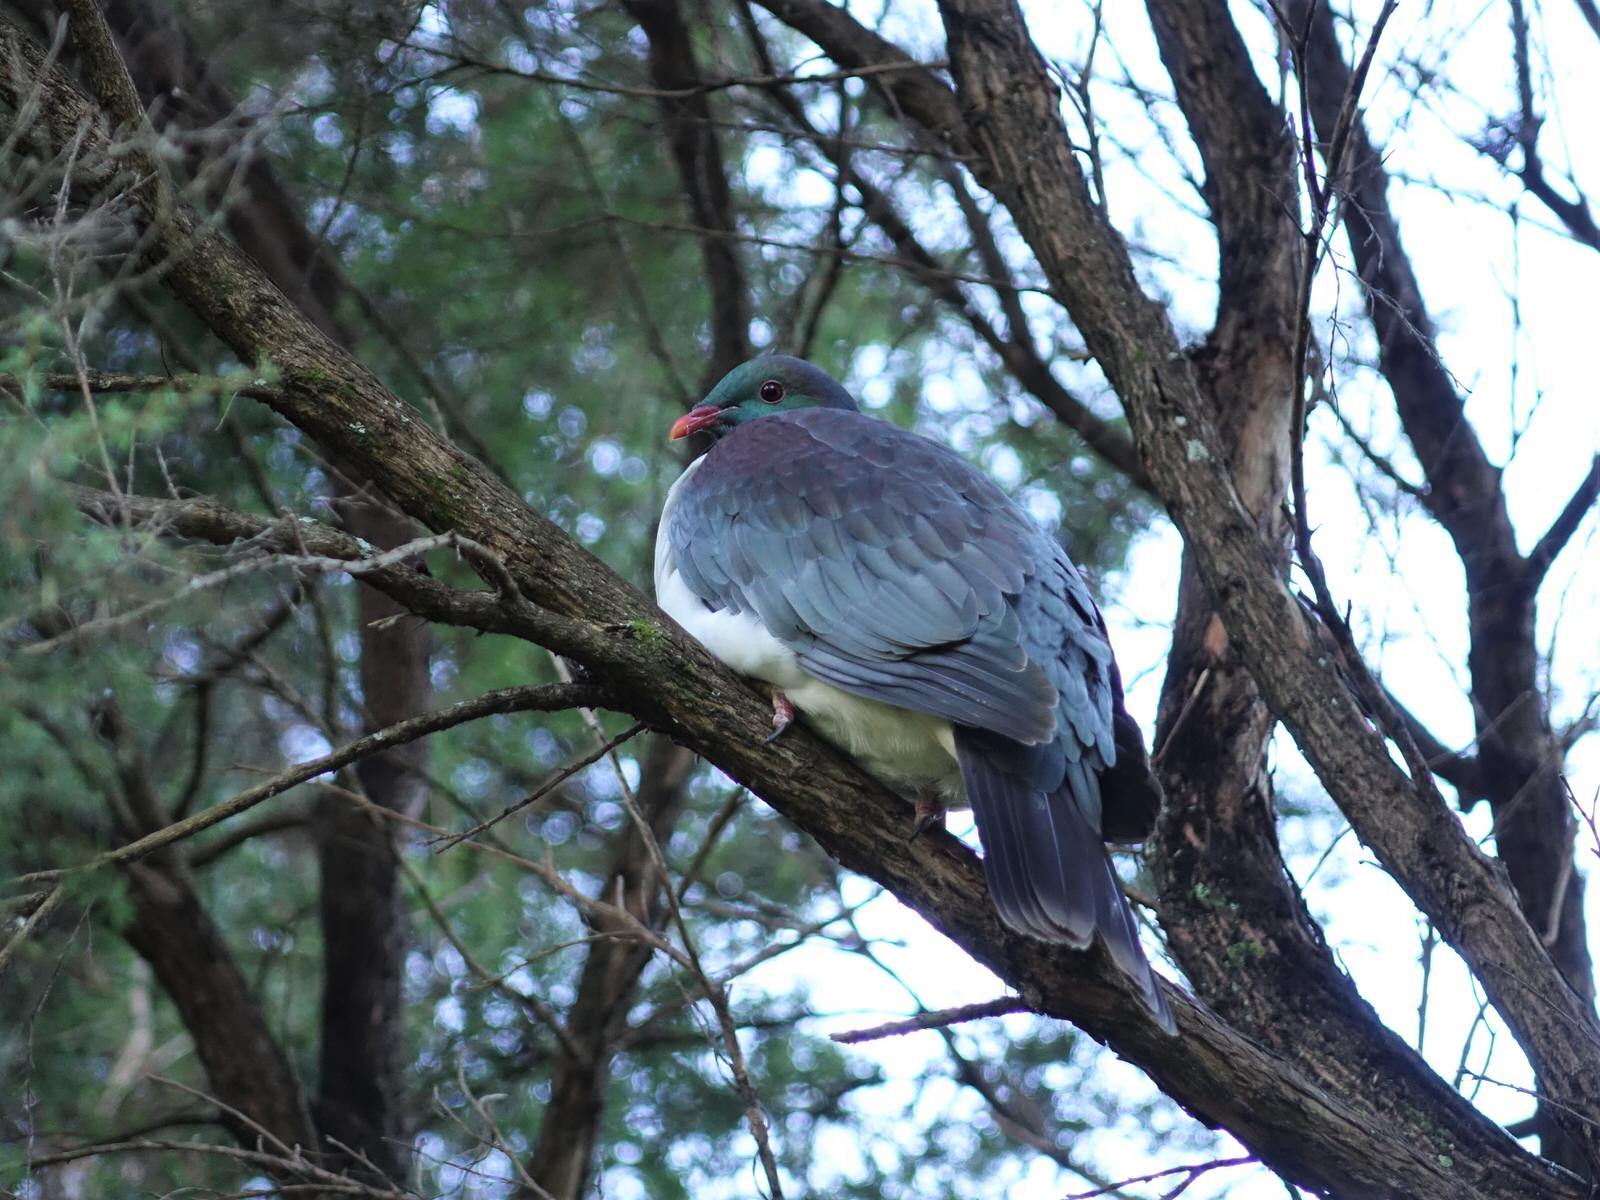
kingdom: Animalia
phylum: Chordata
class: Aves
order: Columbiformes
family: Columbidae
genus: Hemiphaga
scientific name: Hemiphaga novaeseelandiae
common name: New zealand pigeon
